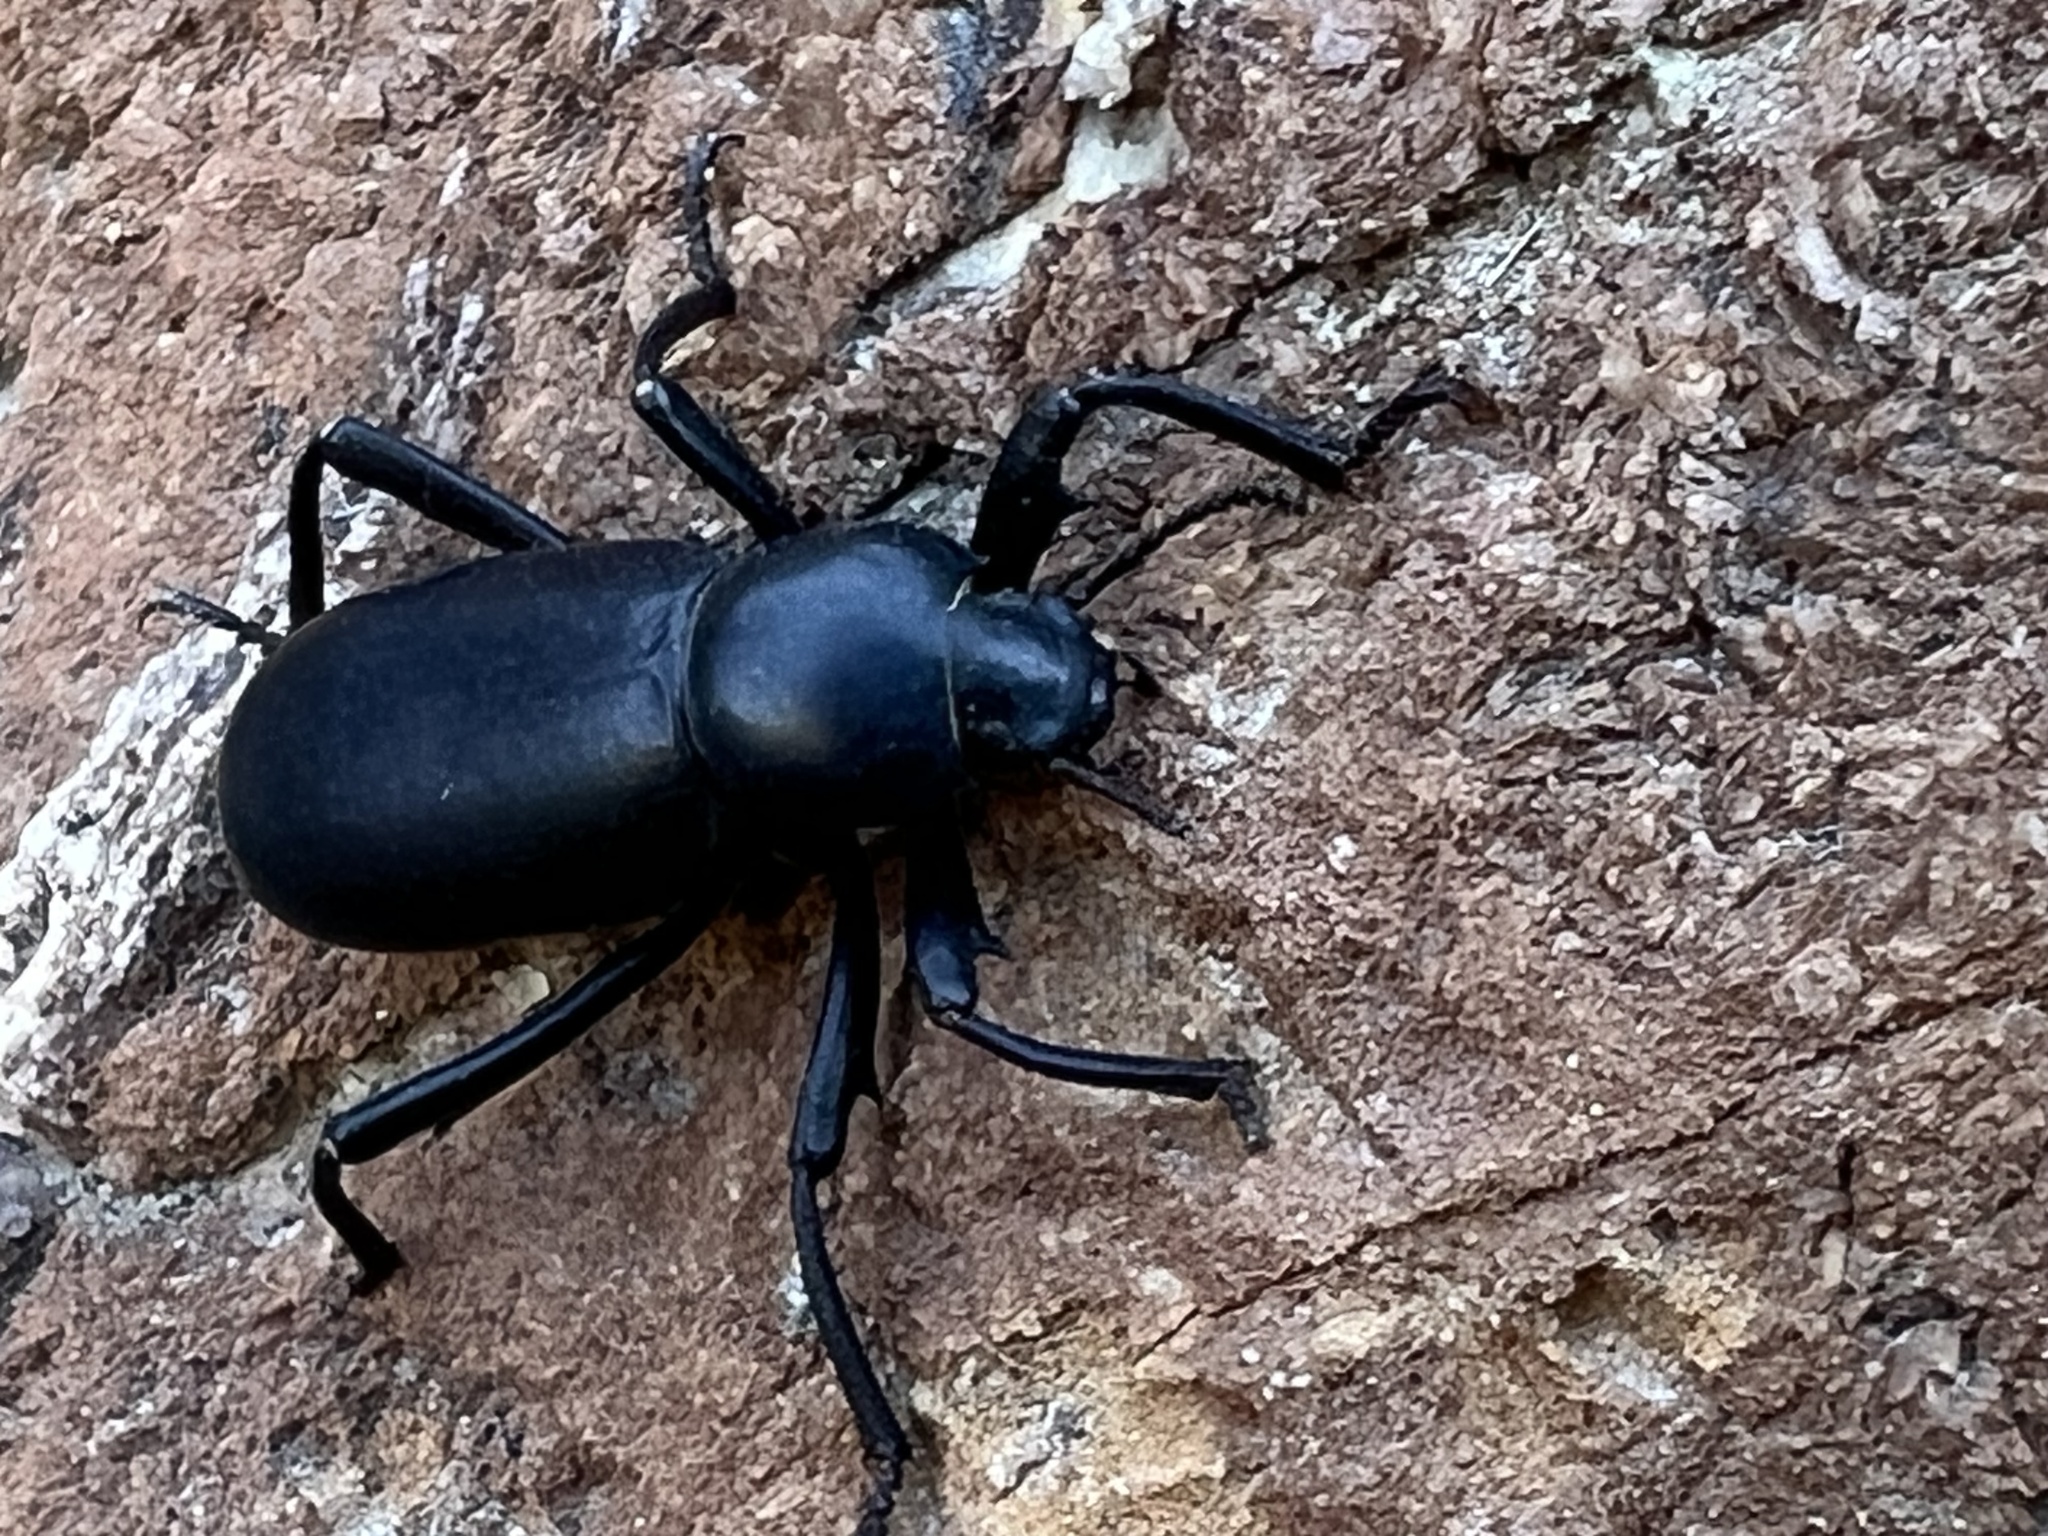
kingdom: Animalia
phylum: Arthropoda
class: Insecta
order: Coleoptera
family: Tenebrionidae
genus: Eleodes
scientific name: Eleodes armata
